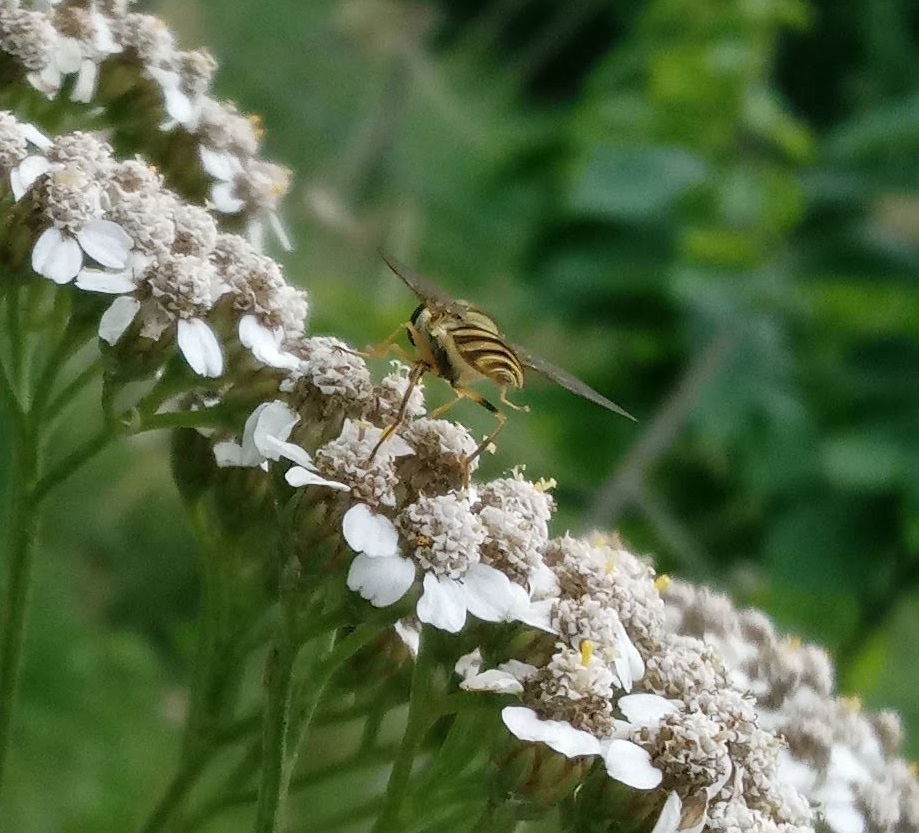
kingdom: Animalia
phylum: Arthropoda
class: Insecta
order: Diptera
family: Syrphidae
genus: Syrphus
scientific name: Syrphus rectus
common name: Yellow-legged flower fly
